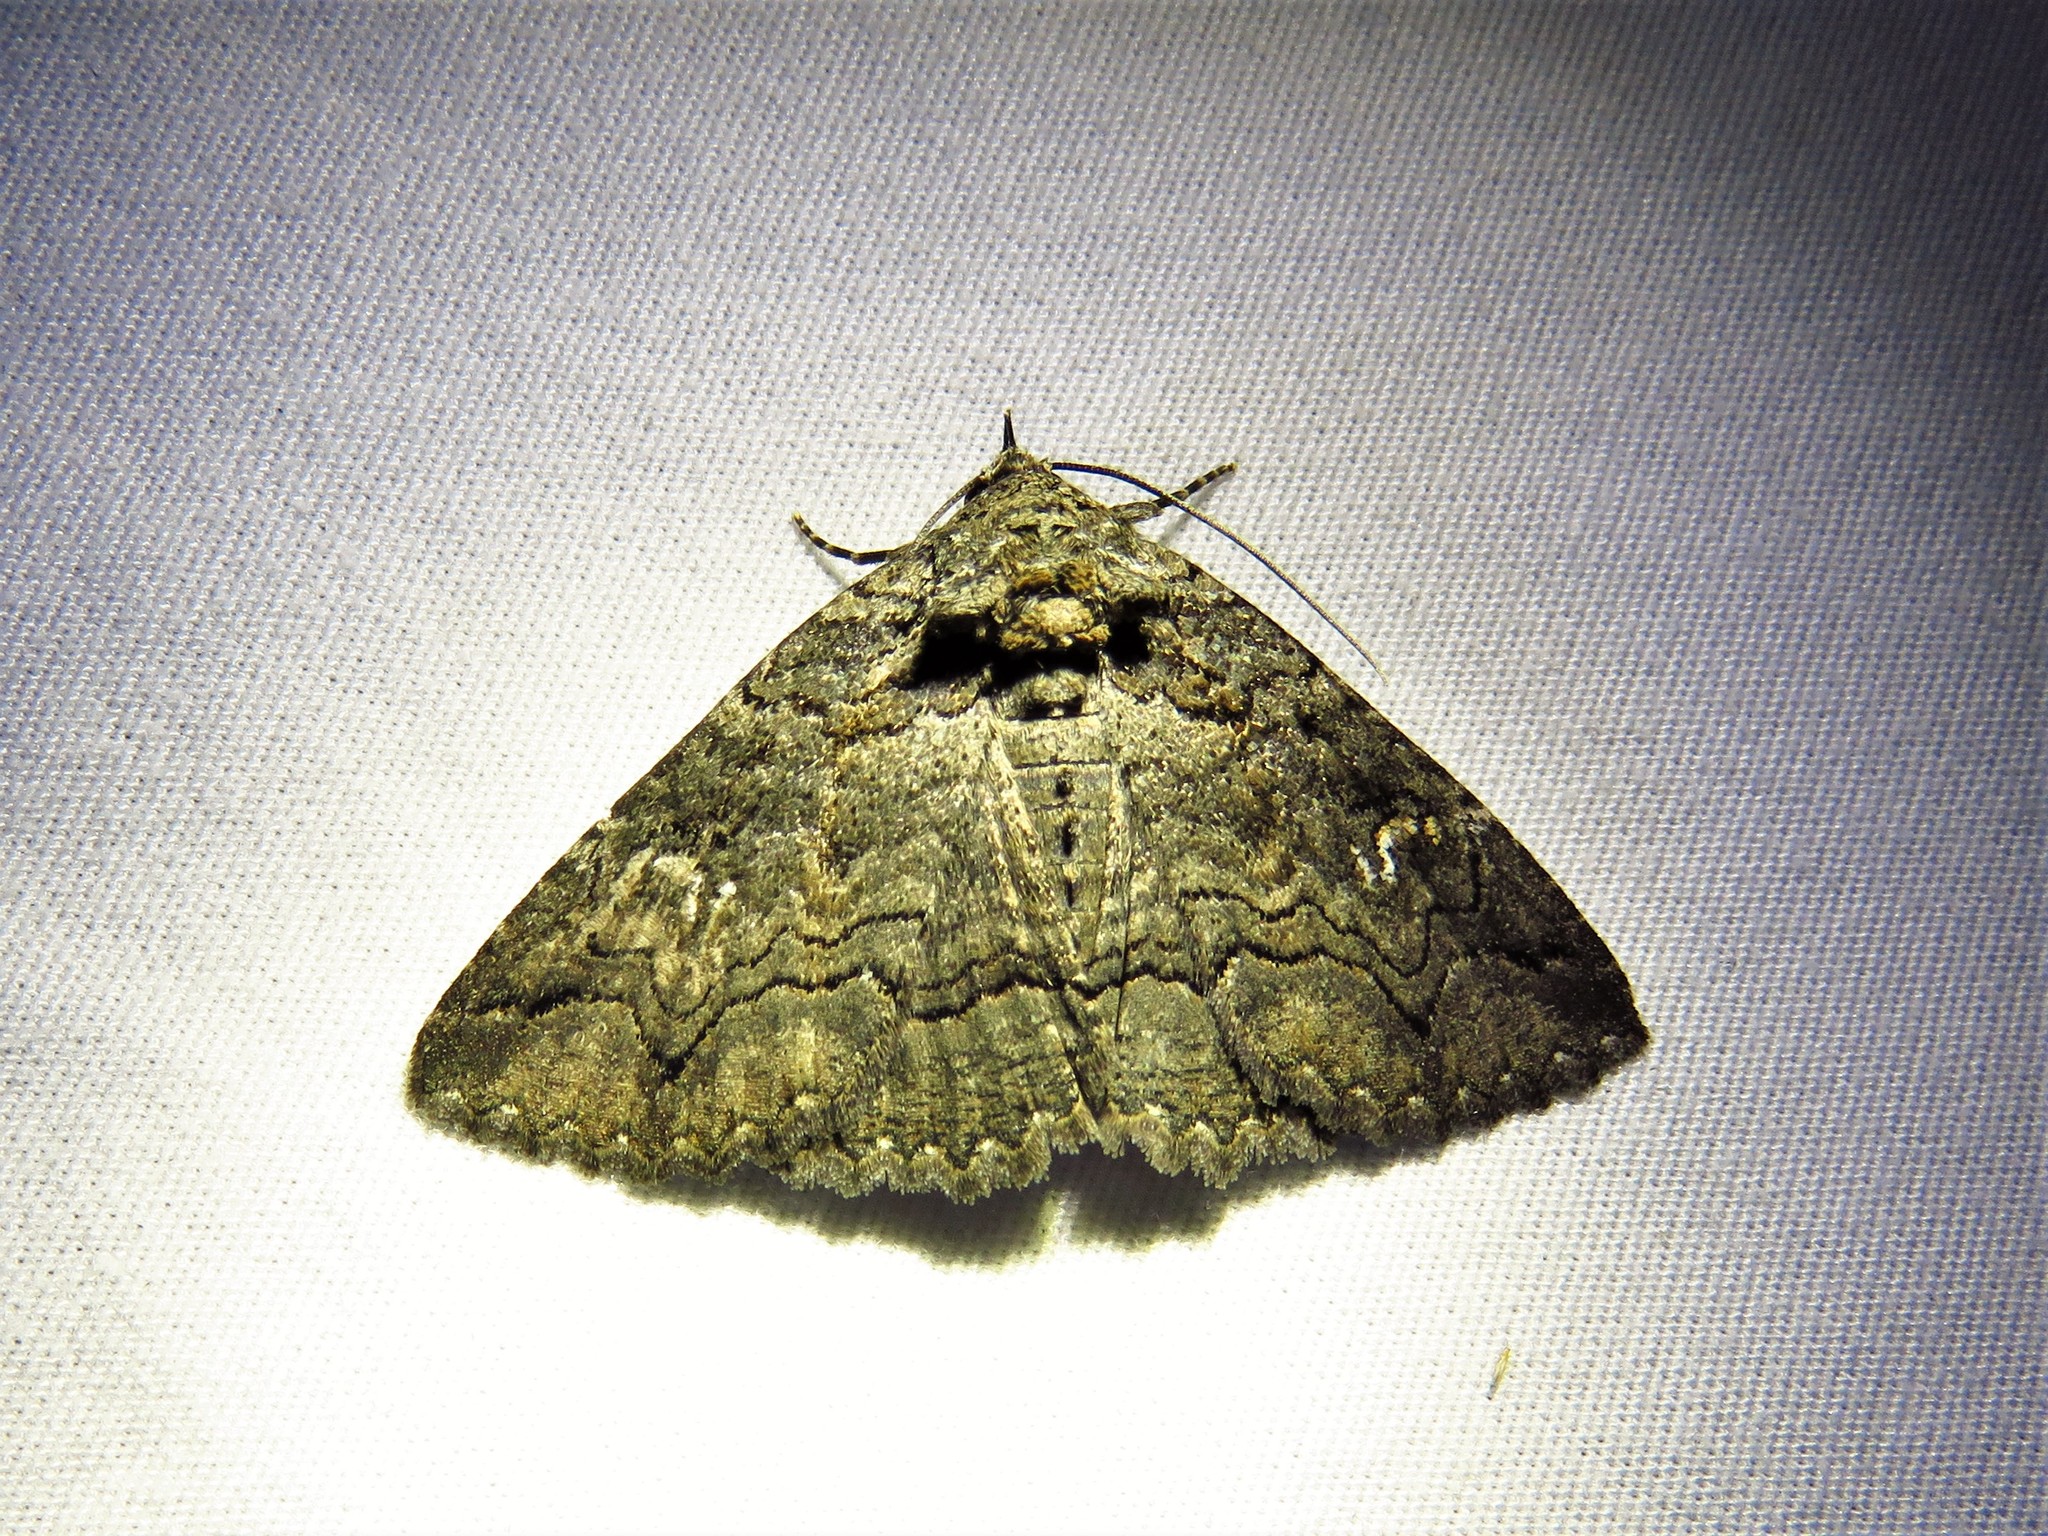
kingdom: Animalia
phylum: Arthropoda
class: Insecta
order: Lepidoptera
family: Erebidae
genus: Zale
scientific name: Zale edusina
